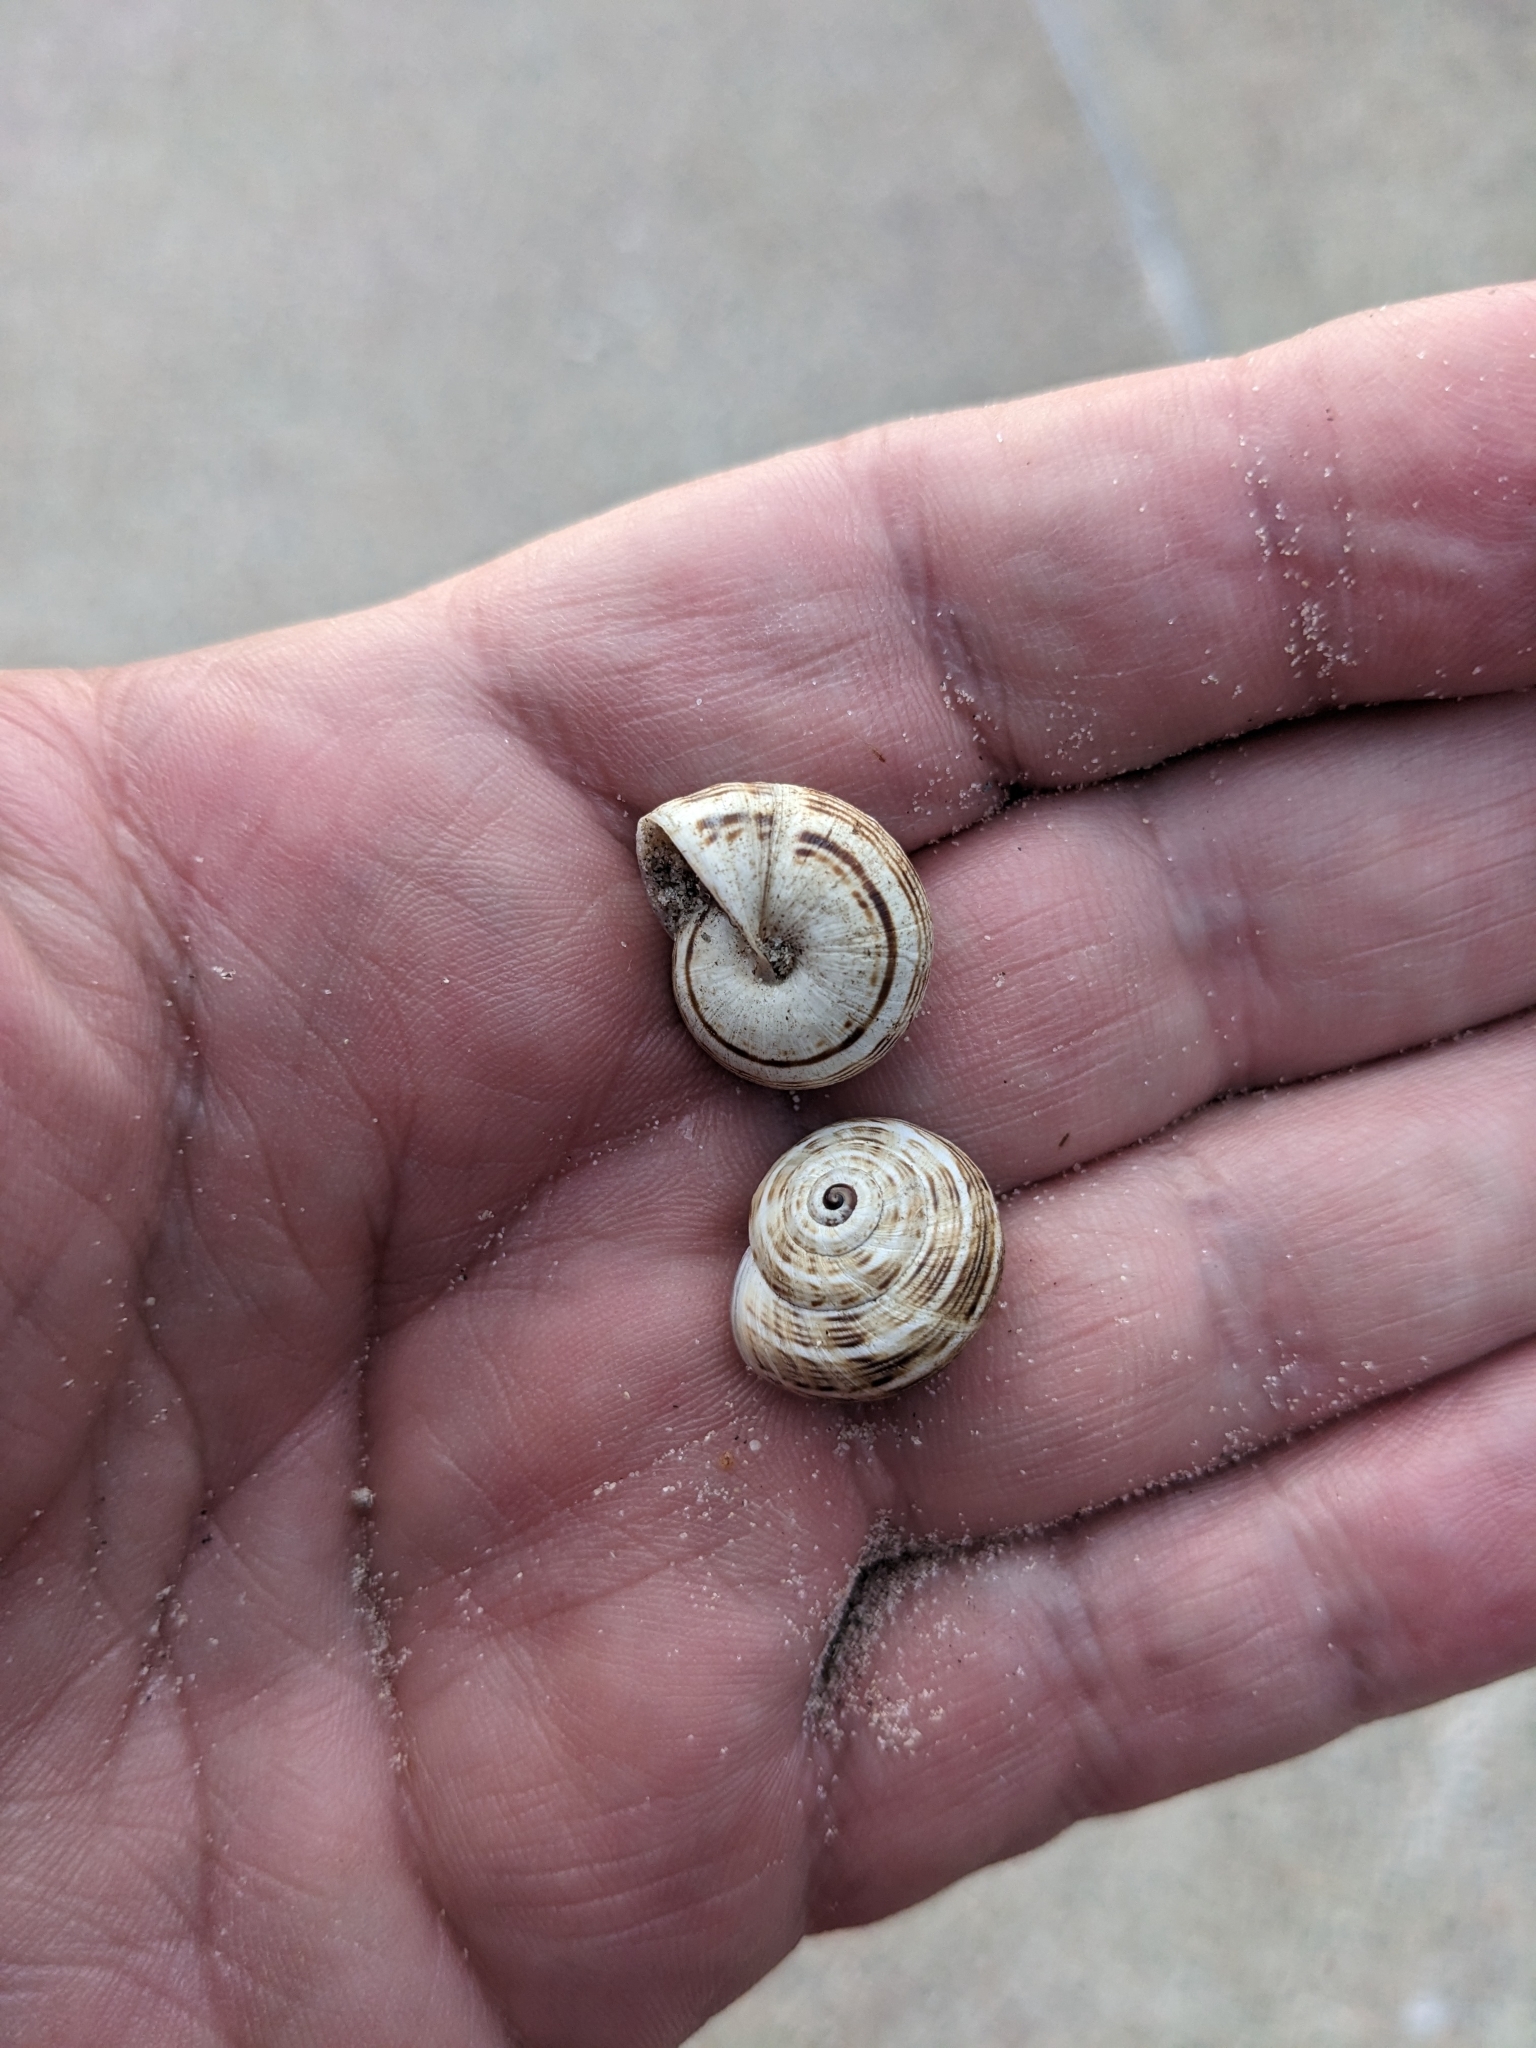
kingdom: Animalia
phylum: Mollusca
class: Gastropoda
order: Stylommatophora
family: Helicidae
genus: Theba
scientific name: Theba pisana
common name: White snail
